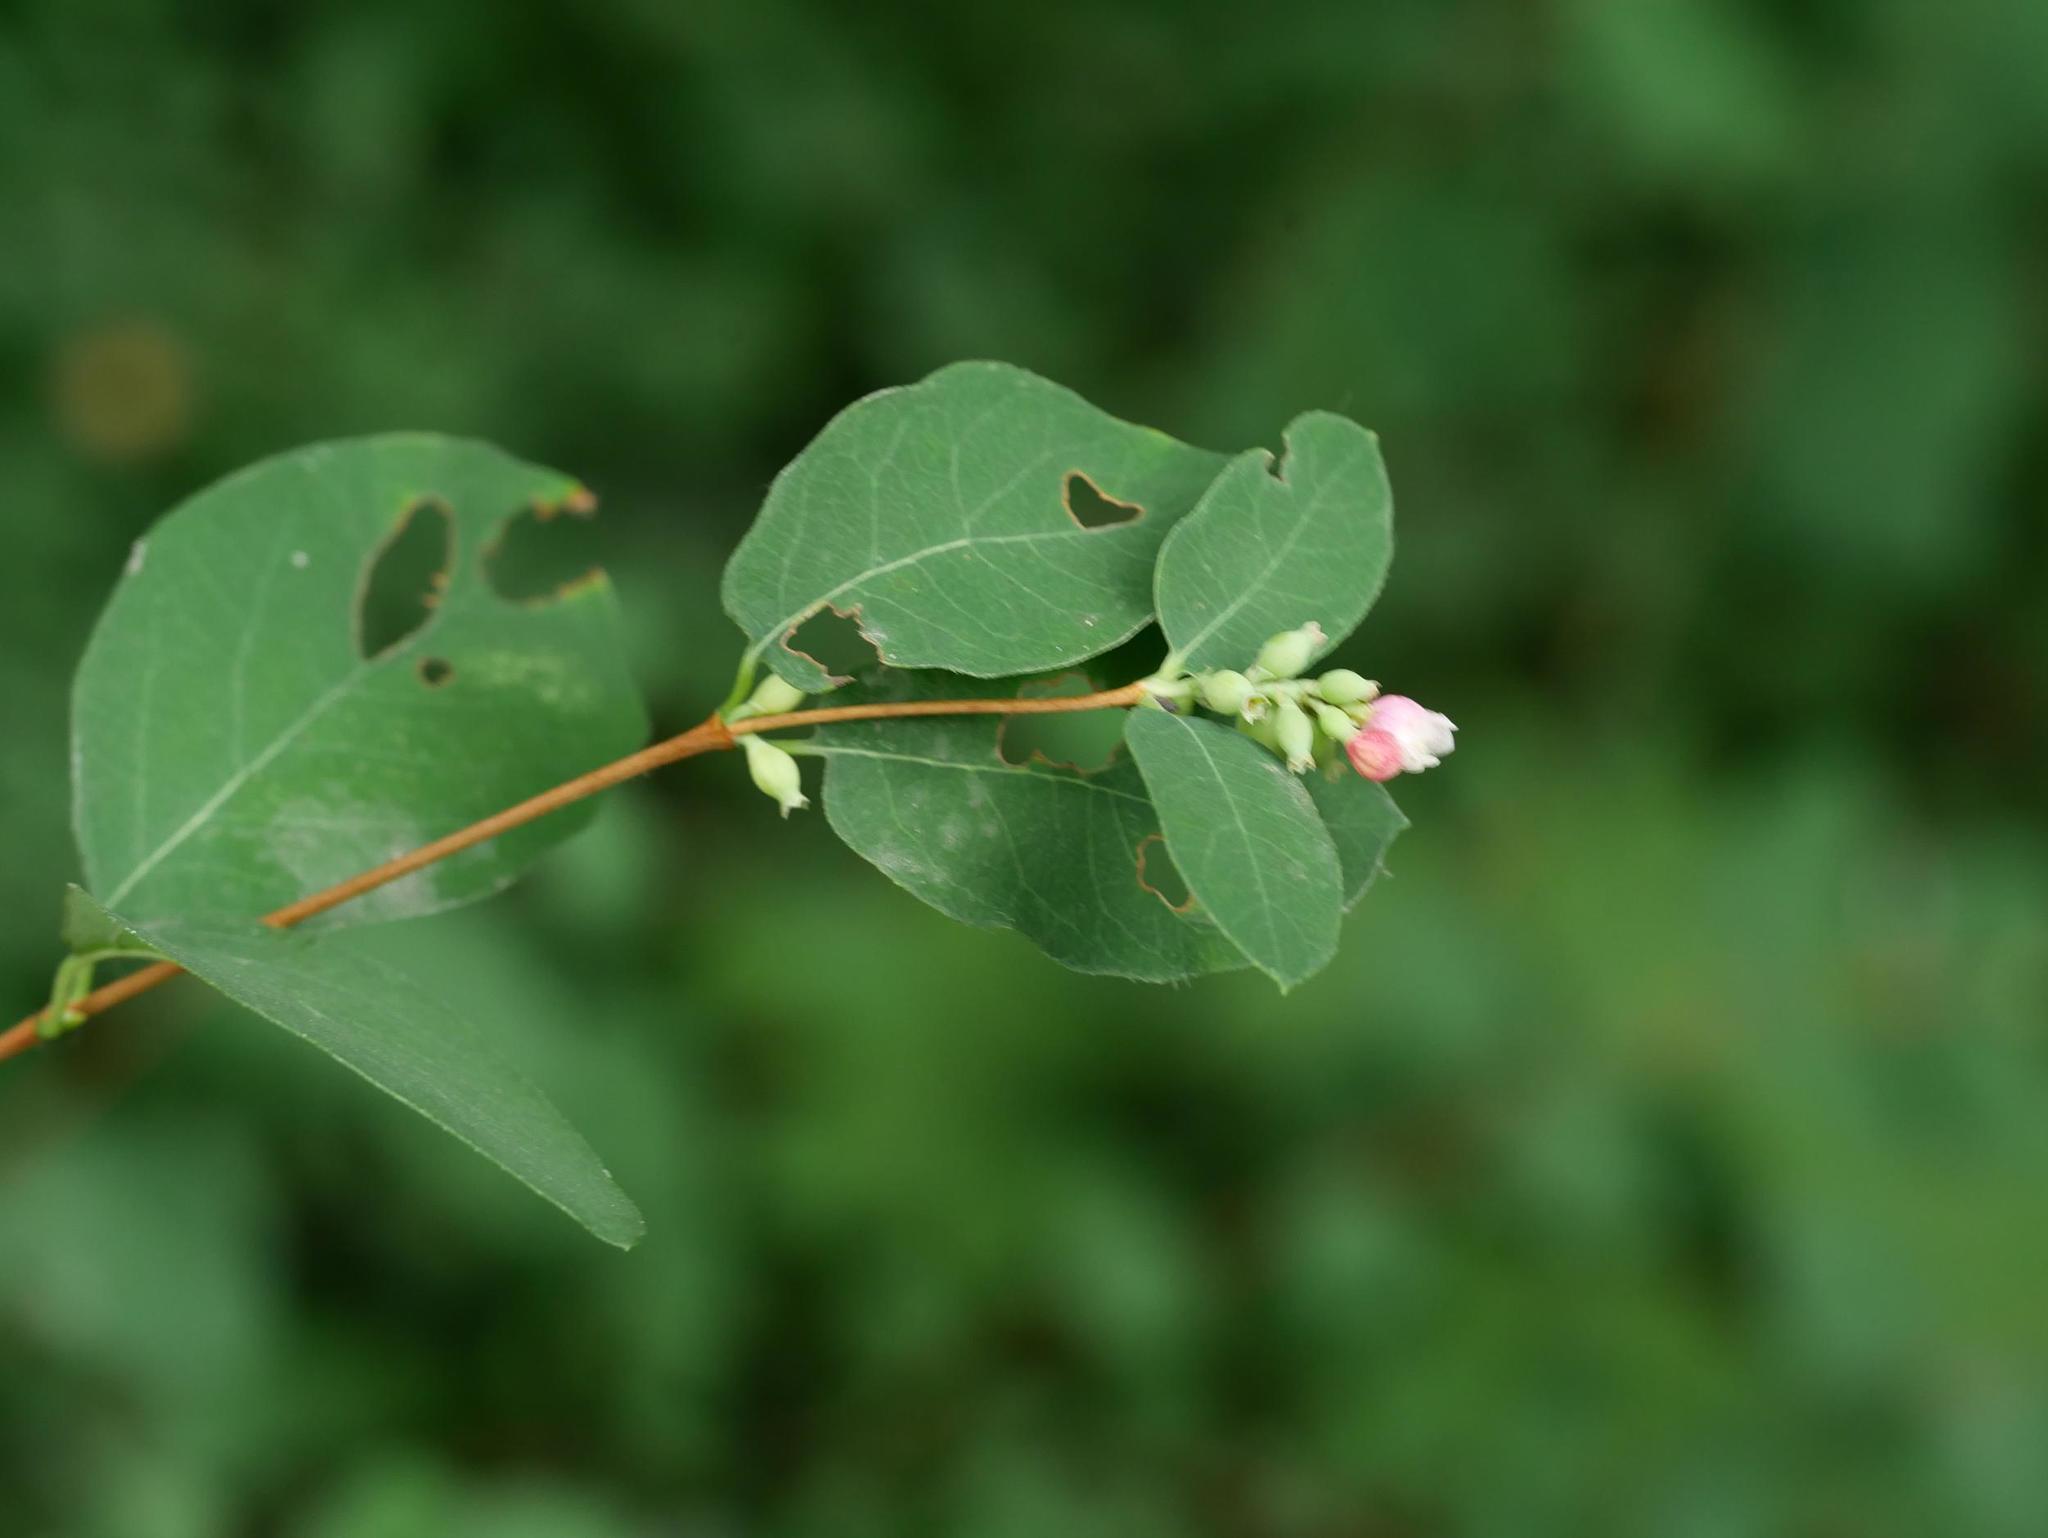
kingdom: Plantae
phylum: Tracheophyta
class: Magnoliopsida
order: Dipsacales
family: Caprifoliaceae
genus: Symphoricarpos
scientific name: Symphoricarpos albus
